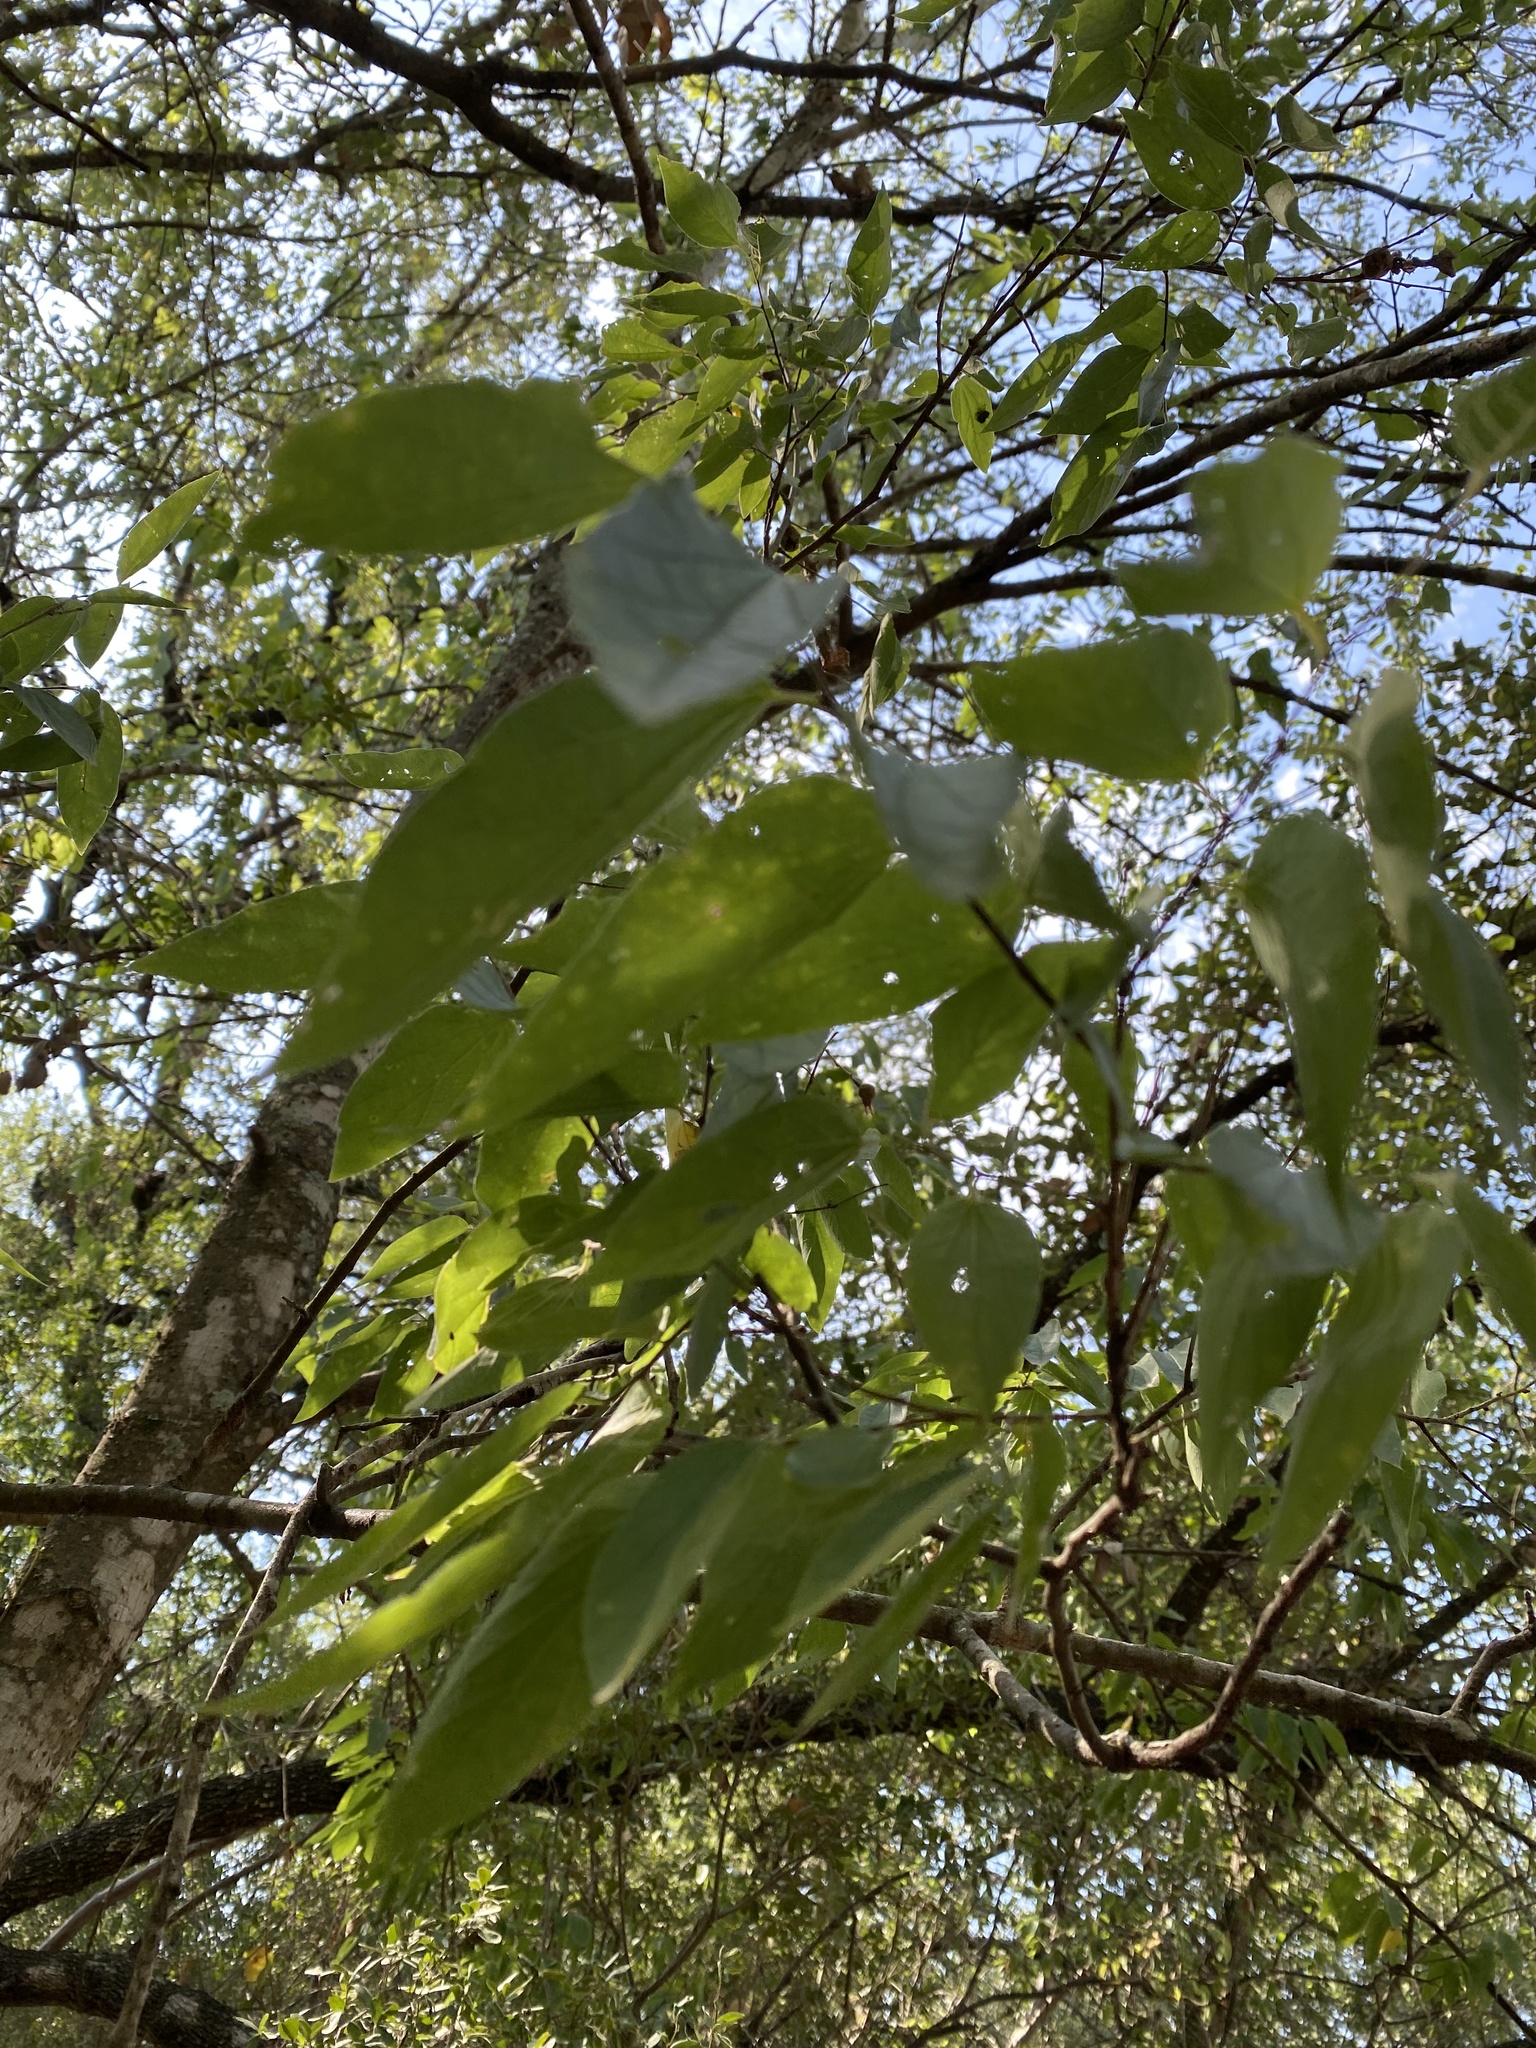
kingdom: Plantae
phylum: Tracheophyta
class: Magnoliopsida
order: Rosales
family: Cannabaceae
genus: Celtis
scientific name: Celtis laevigata
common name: Sugarberry
